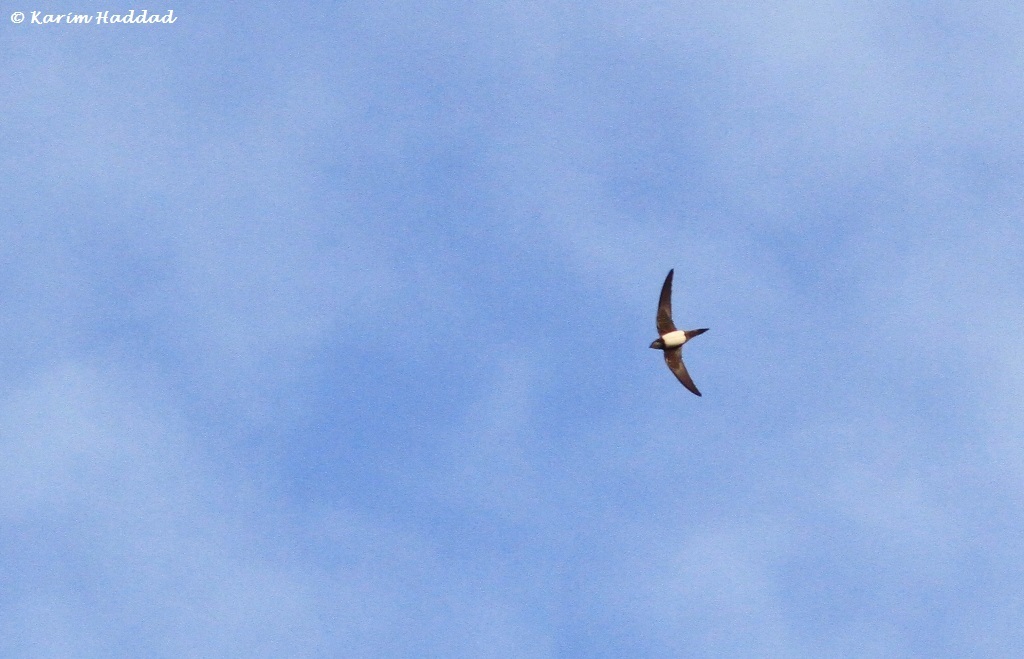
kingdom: Animalia
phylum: Chordata
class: Aves
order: Apodiformes
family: Apodidae
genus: Tachymarptis
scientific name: Tachymarptis melba
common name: Alpine swift
